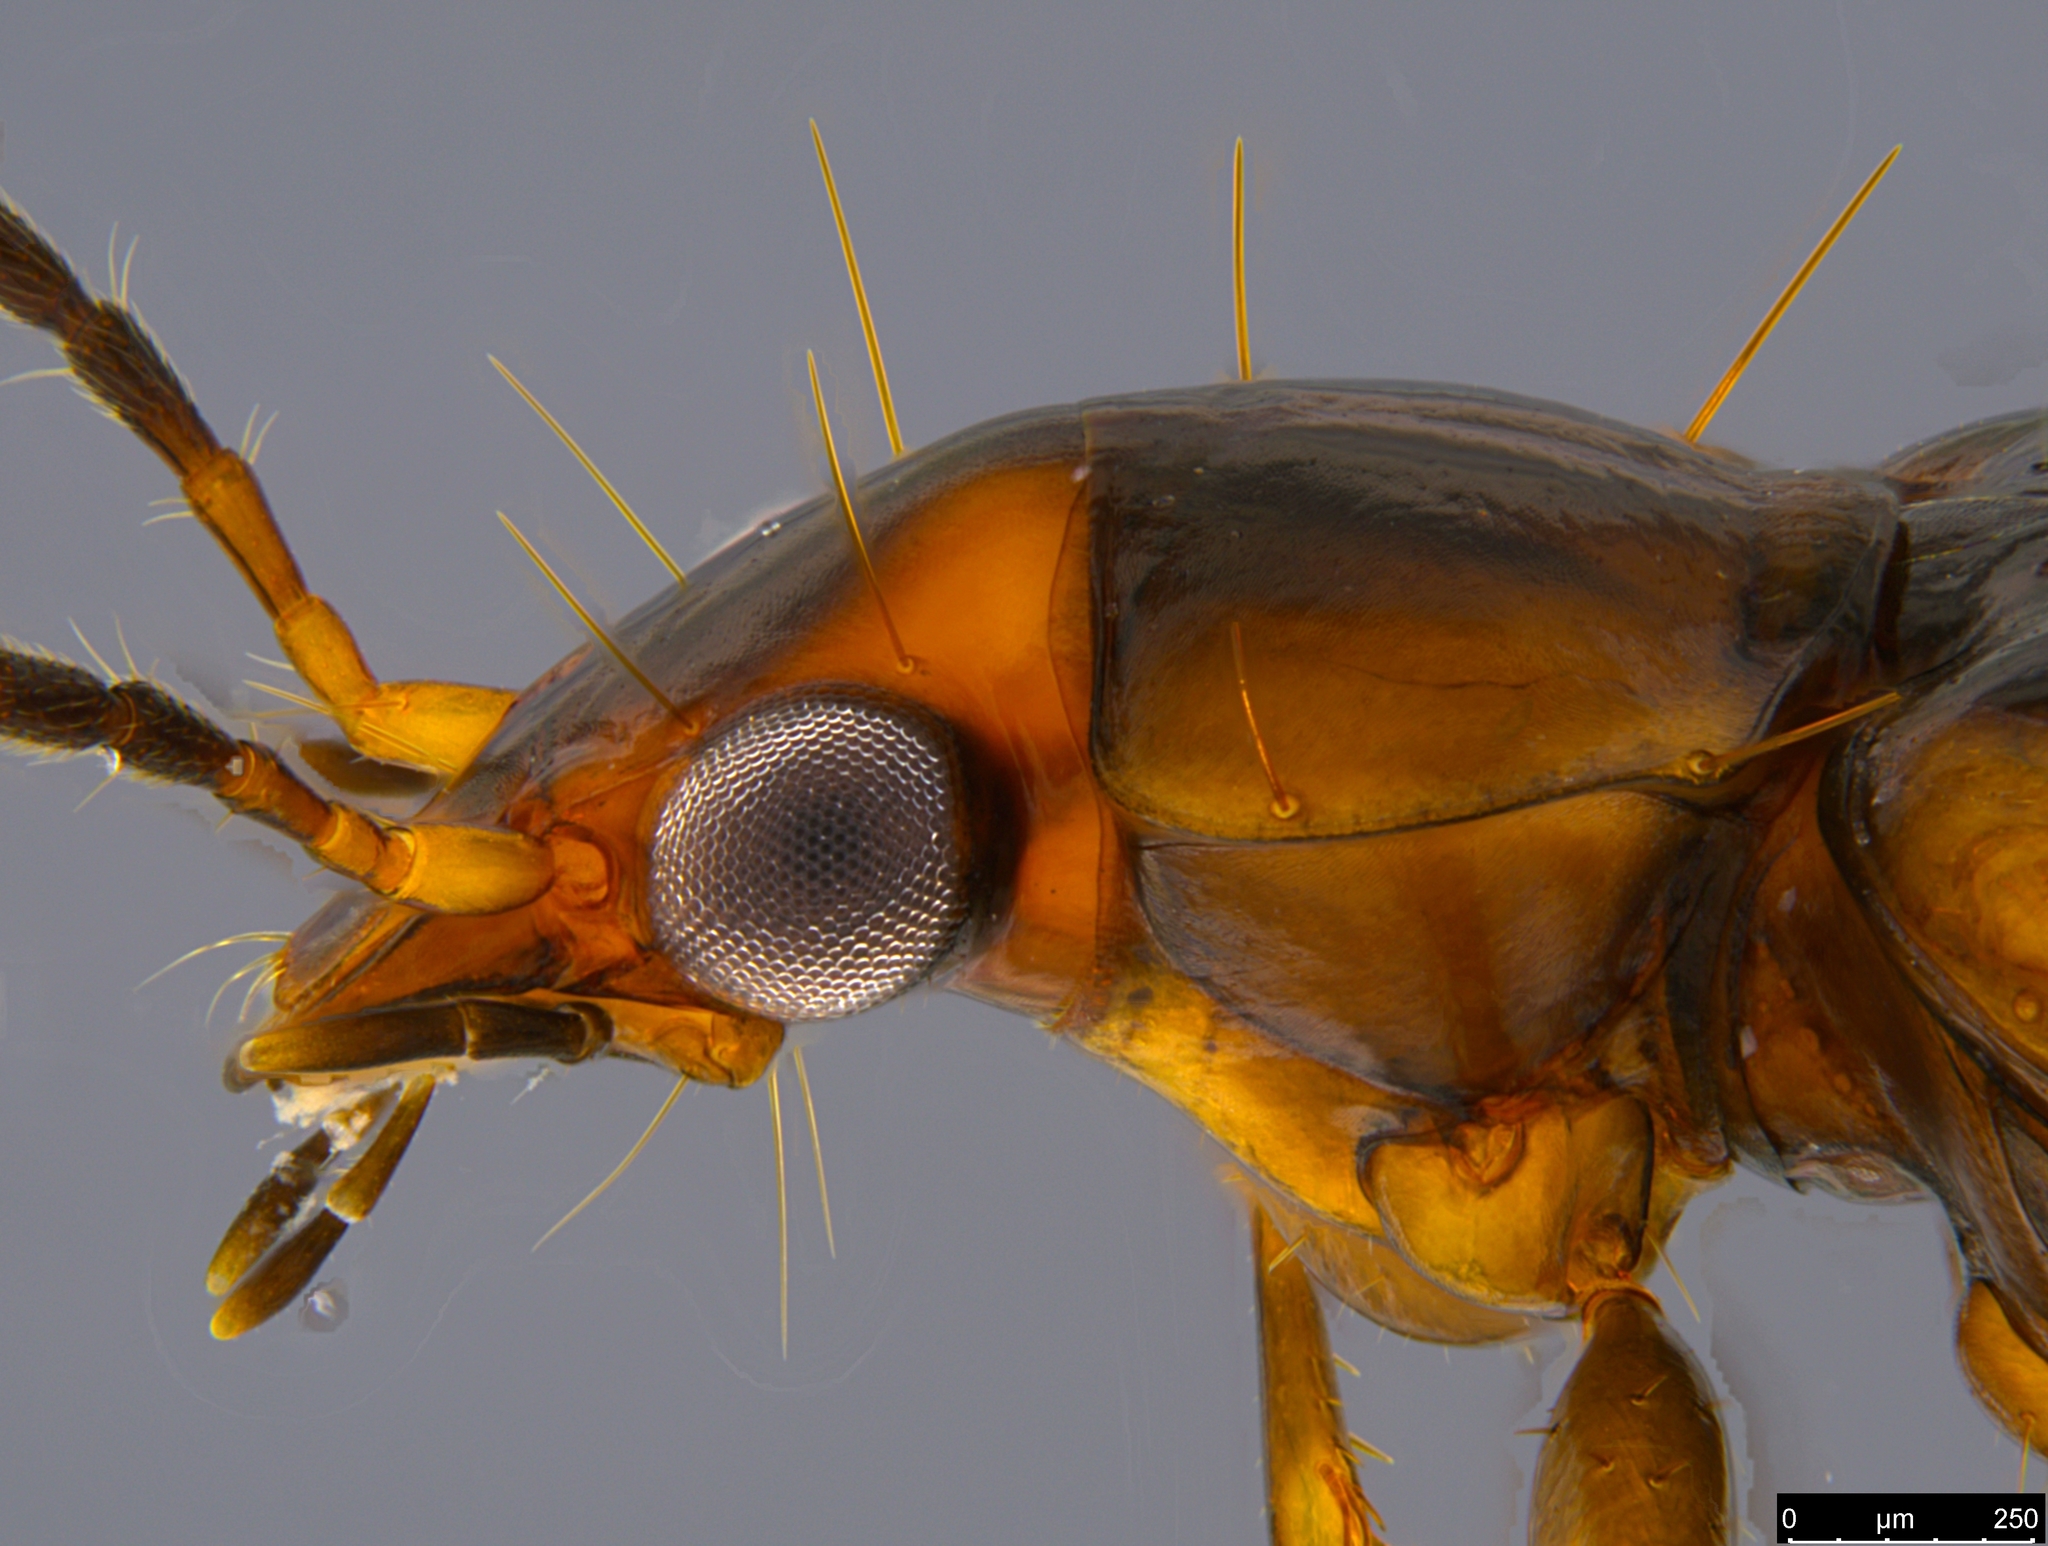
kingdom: Animalia
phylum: Arthropoda
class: Insecta
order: Coleoptera
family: Carabidae
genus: Sarothrocrepis
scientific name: Sarothrocrepis civica
